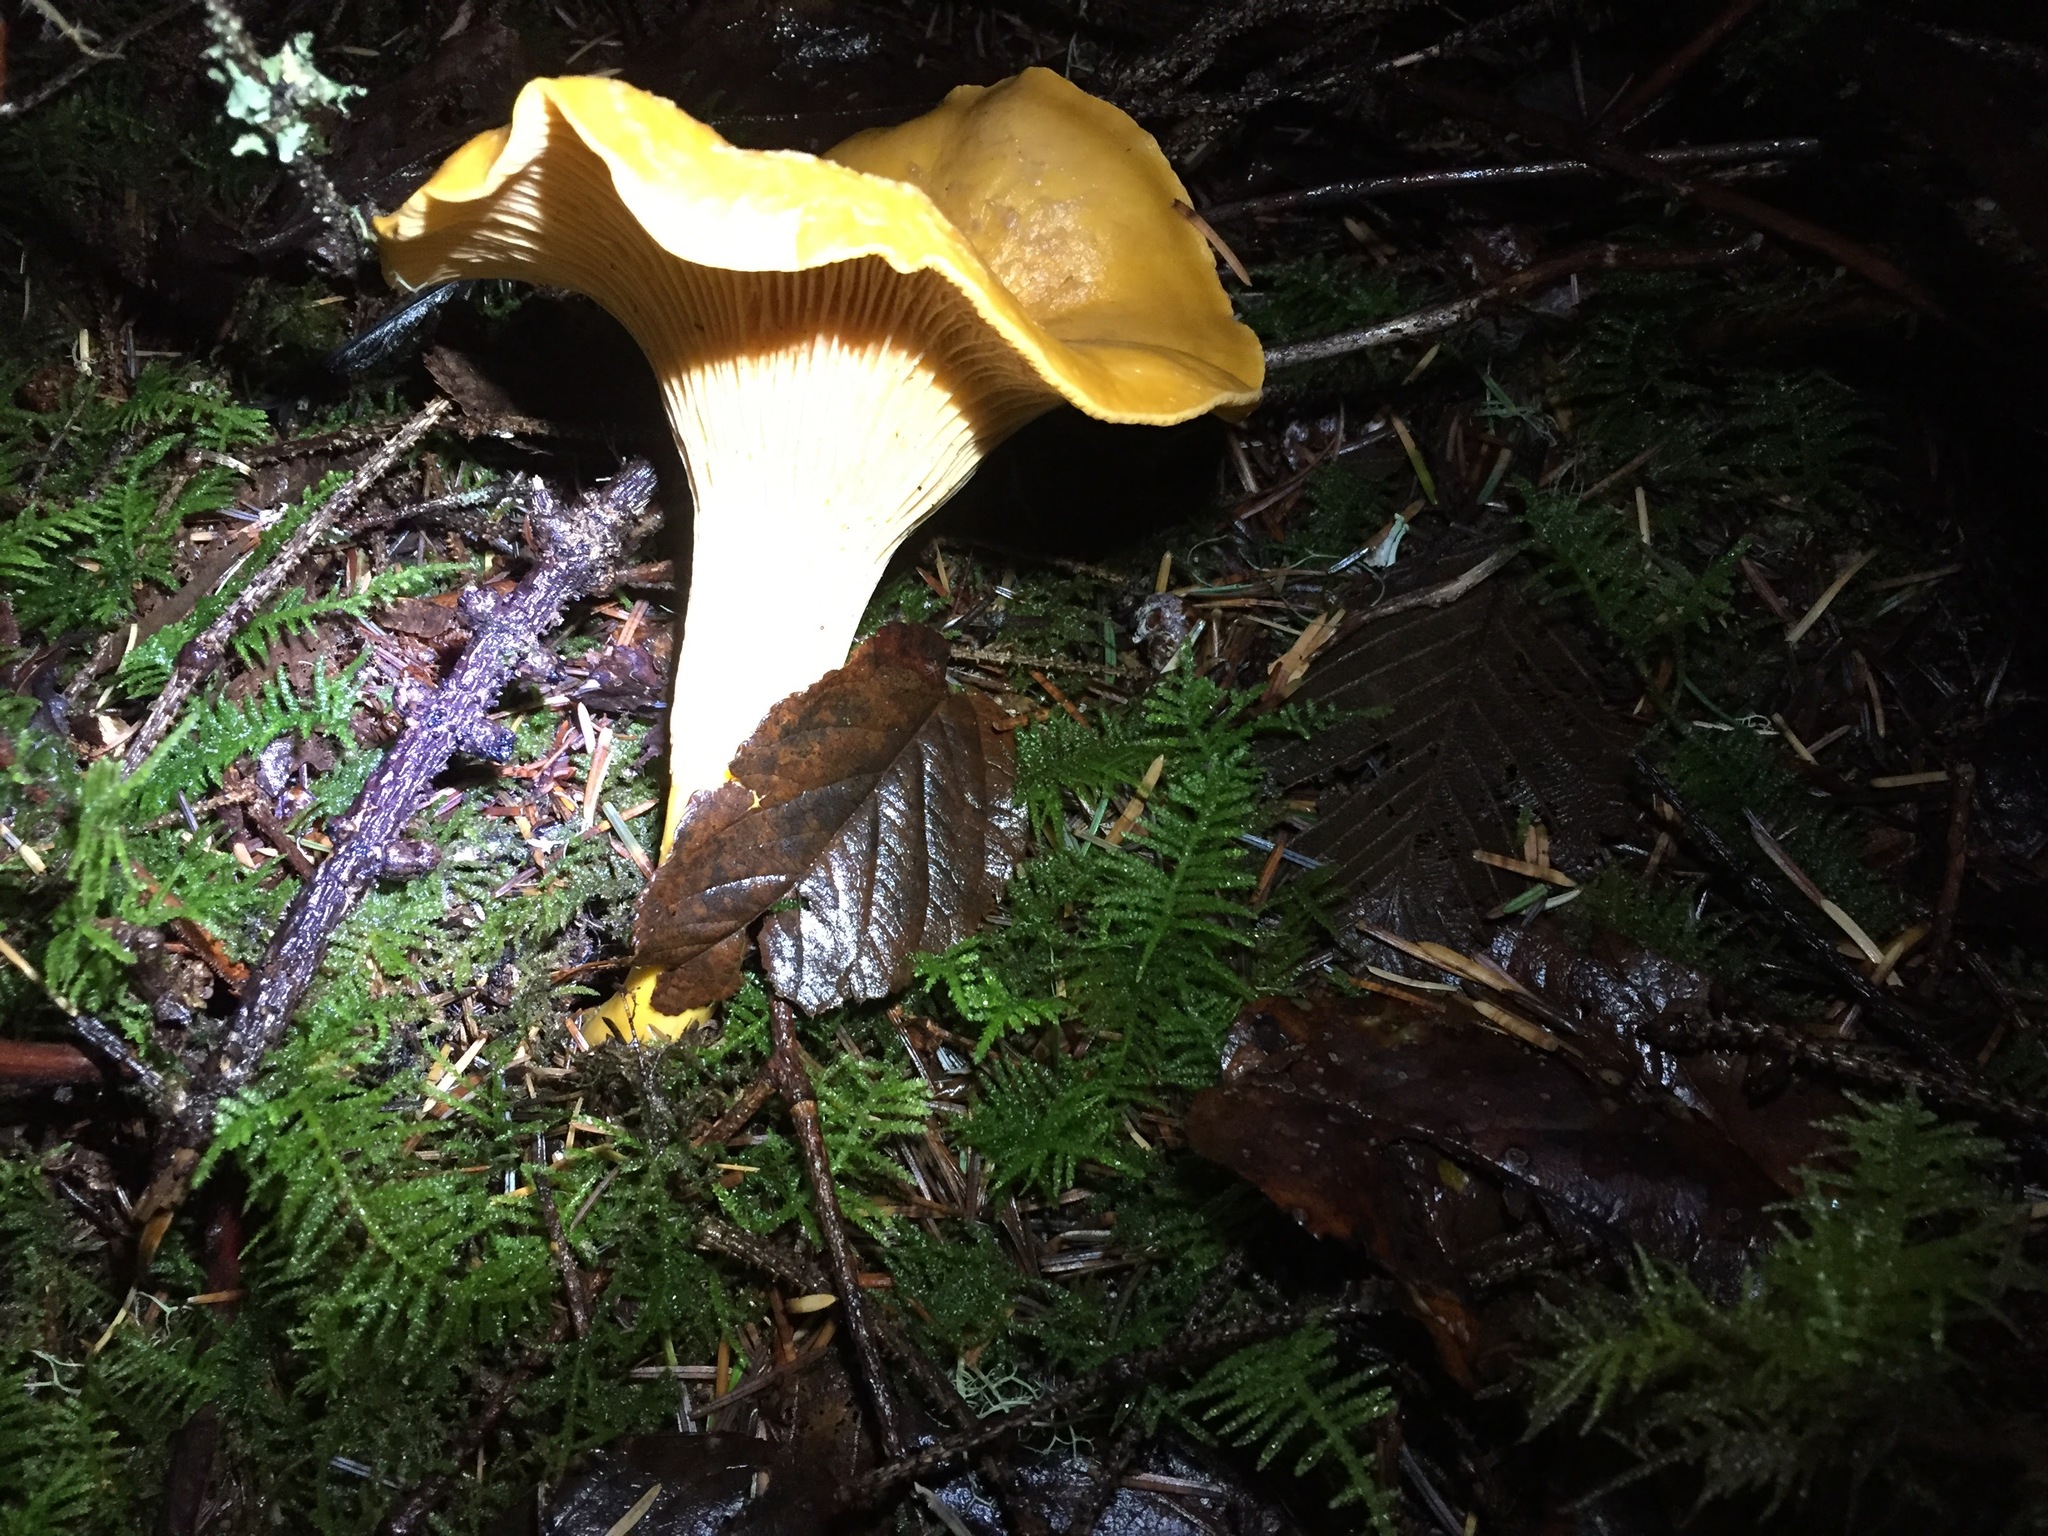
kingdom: Fungi
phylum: Basidiomycota
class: Agaricomycetes
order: Cantharellales
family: Hydnaceae
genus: Cantharellus
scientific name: Cantharellus formosus
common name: Pacific golden chanterelle
